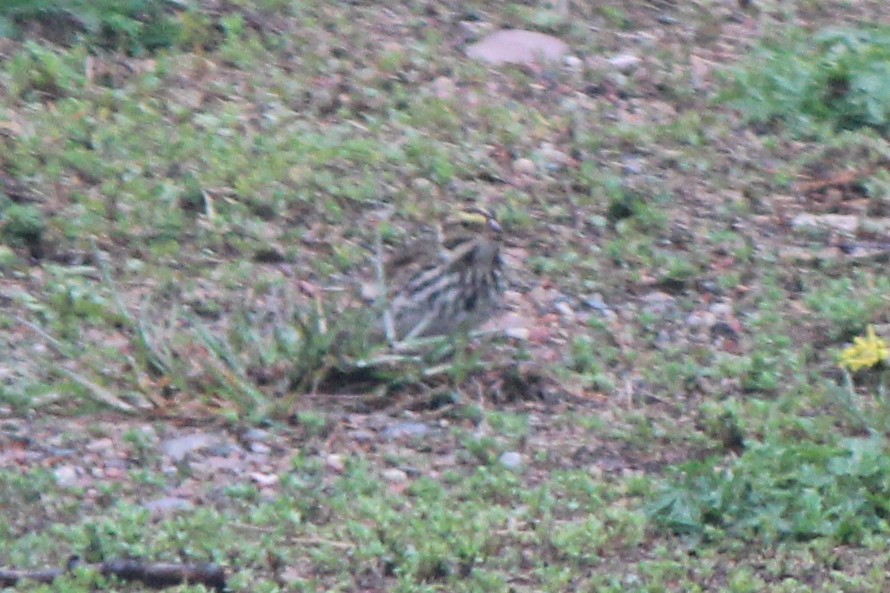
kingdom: Animalia
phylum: Chordata
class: Aves
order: Passeriformes
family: Passerellidae
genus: Passerculus
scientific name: Passerculus sandwichensis
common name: Savannah sparrow
